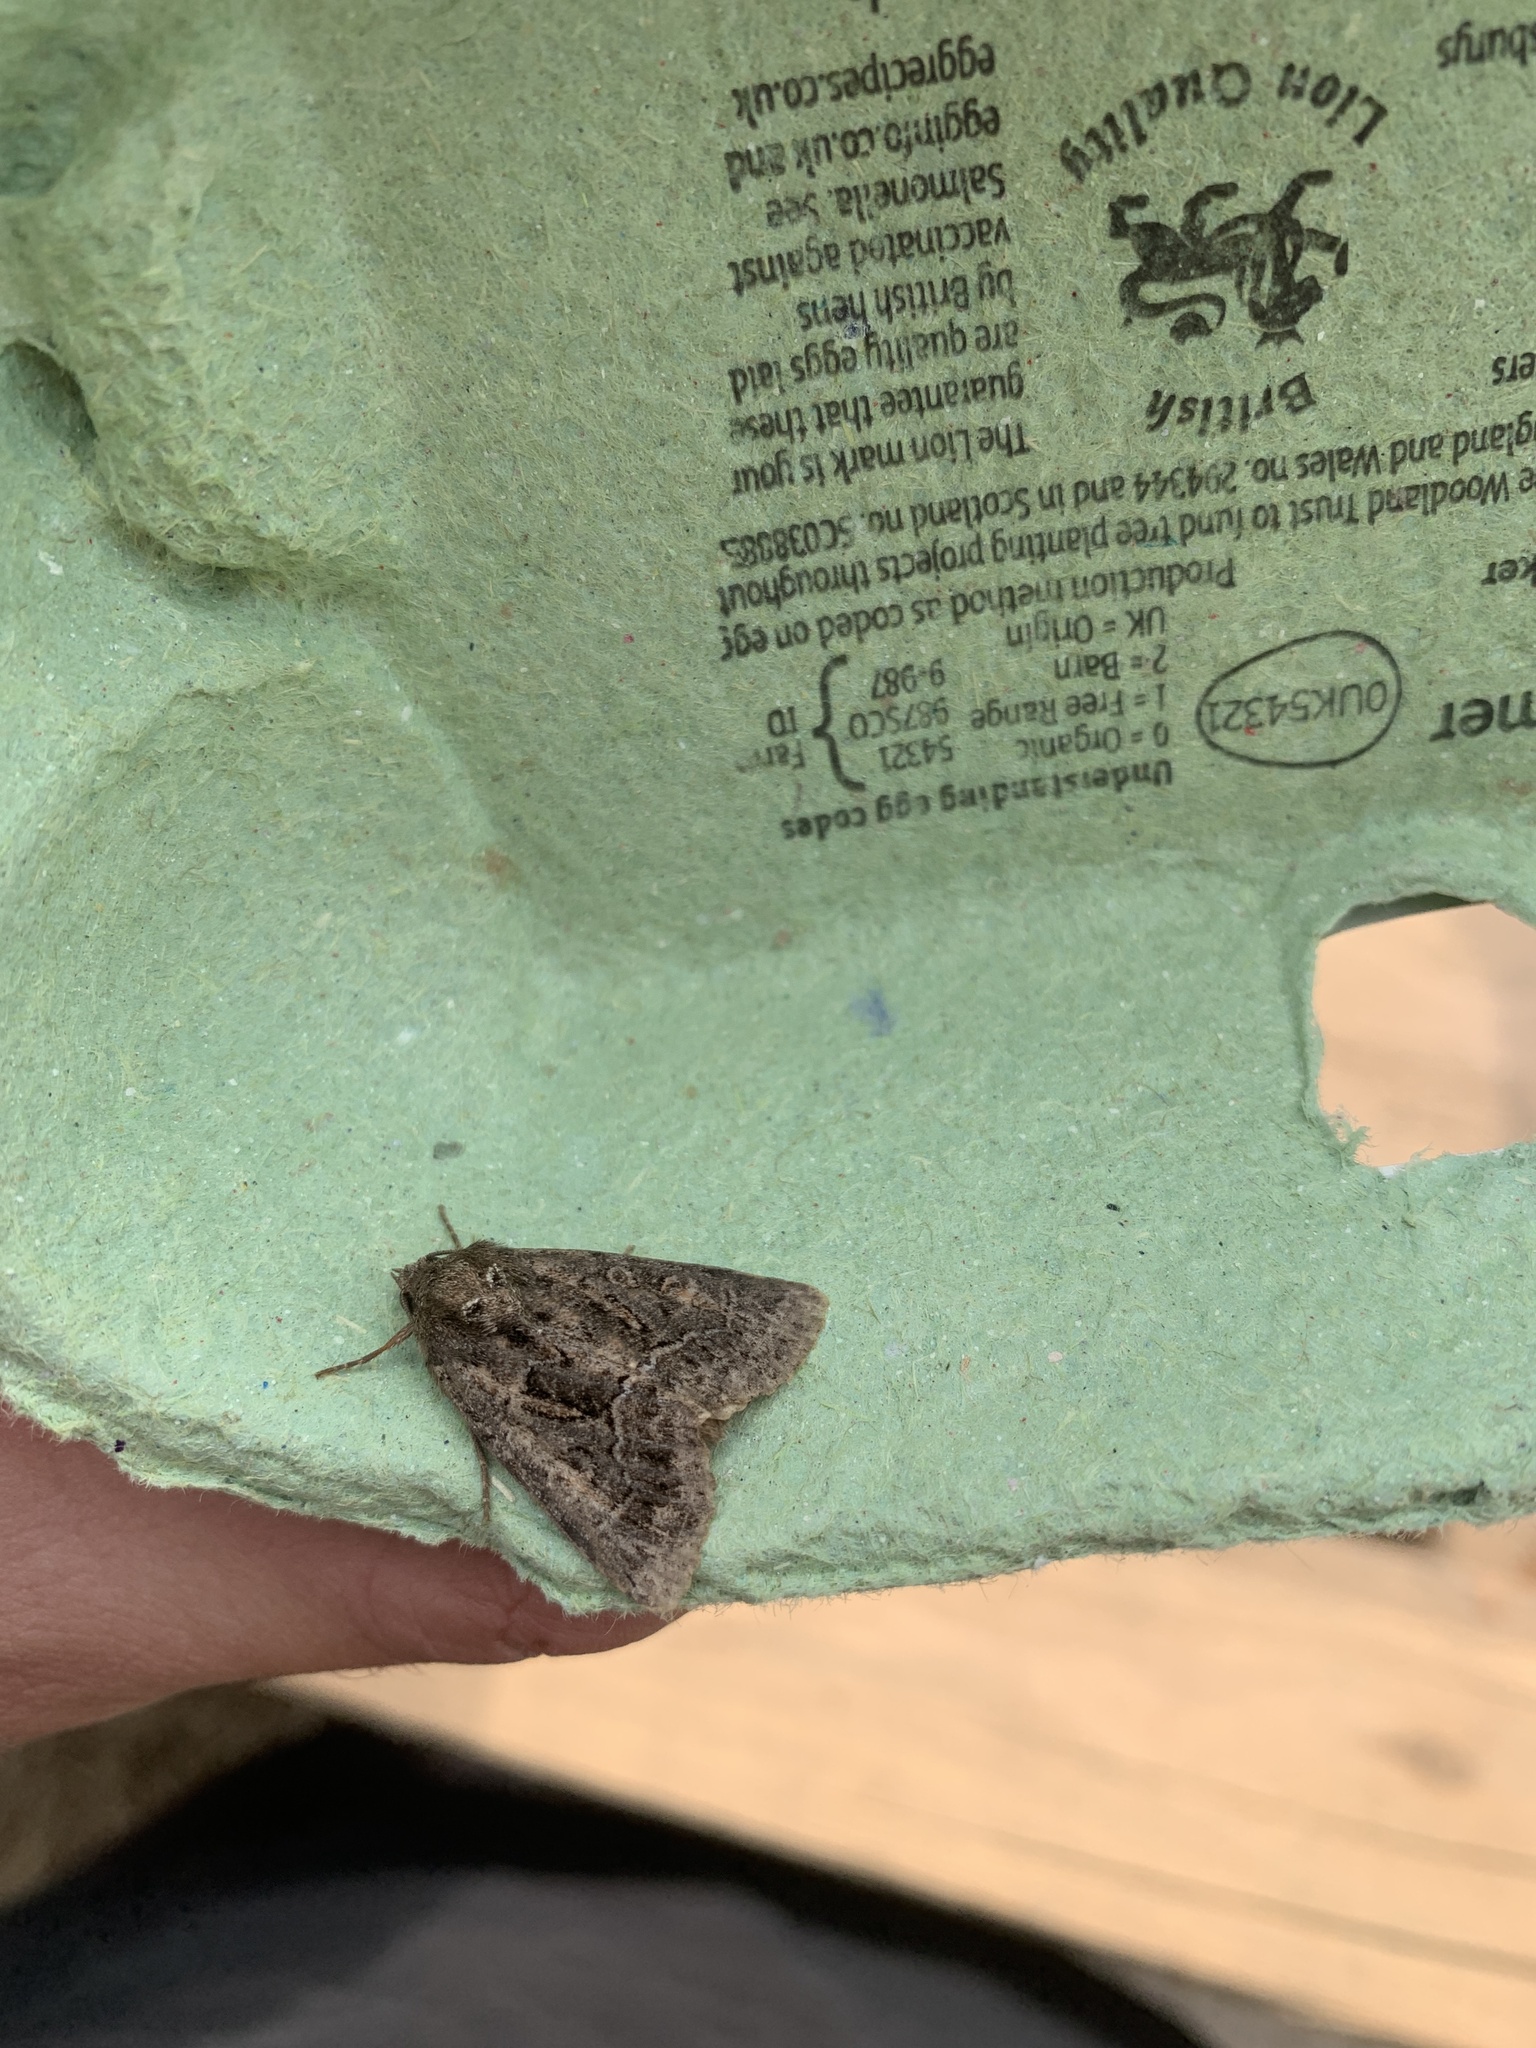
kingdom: Animalia
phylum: Arthropoda
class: Insecta
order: Lepidoptera
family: Noctuidae
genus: Oligia
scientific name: Oligia latruncula
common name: Tawny marbled minor
